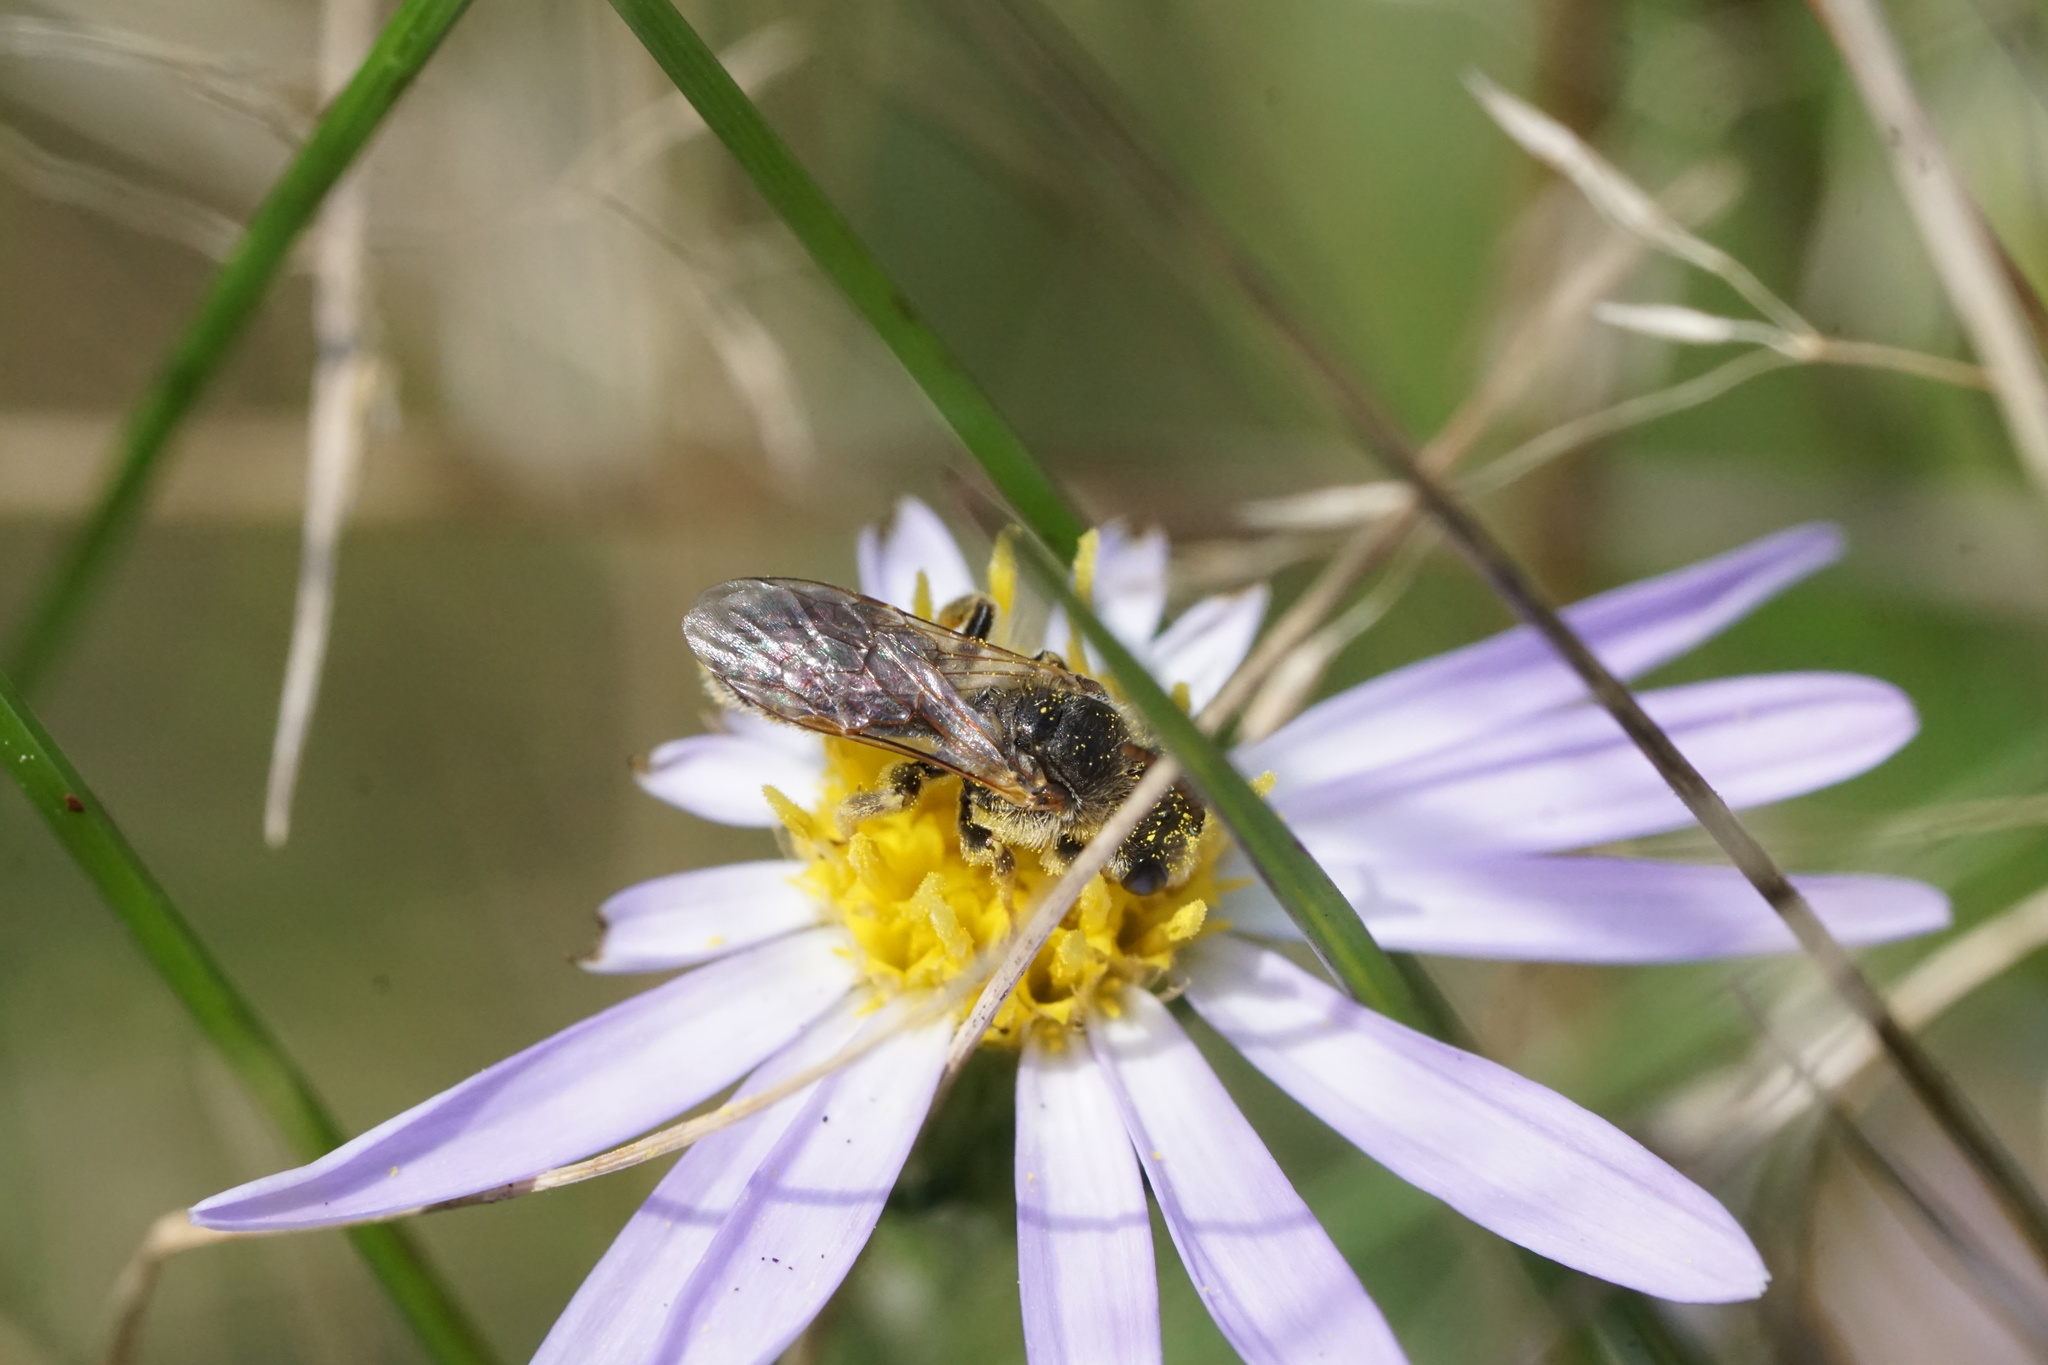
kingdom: Animalia
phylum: Arthropoda
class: Insecta
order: Hymenoptera
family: Halictidae
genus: Halictus
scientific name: Halictus ligatus
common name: Ligated furrow bee
